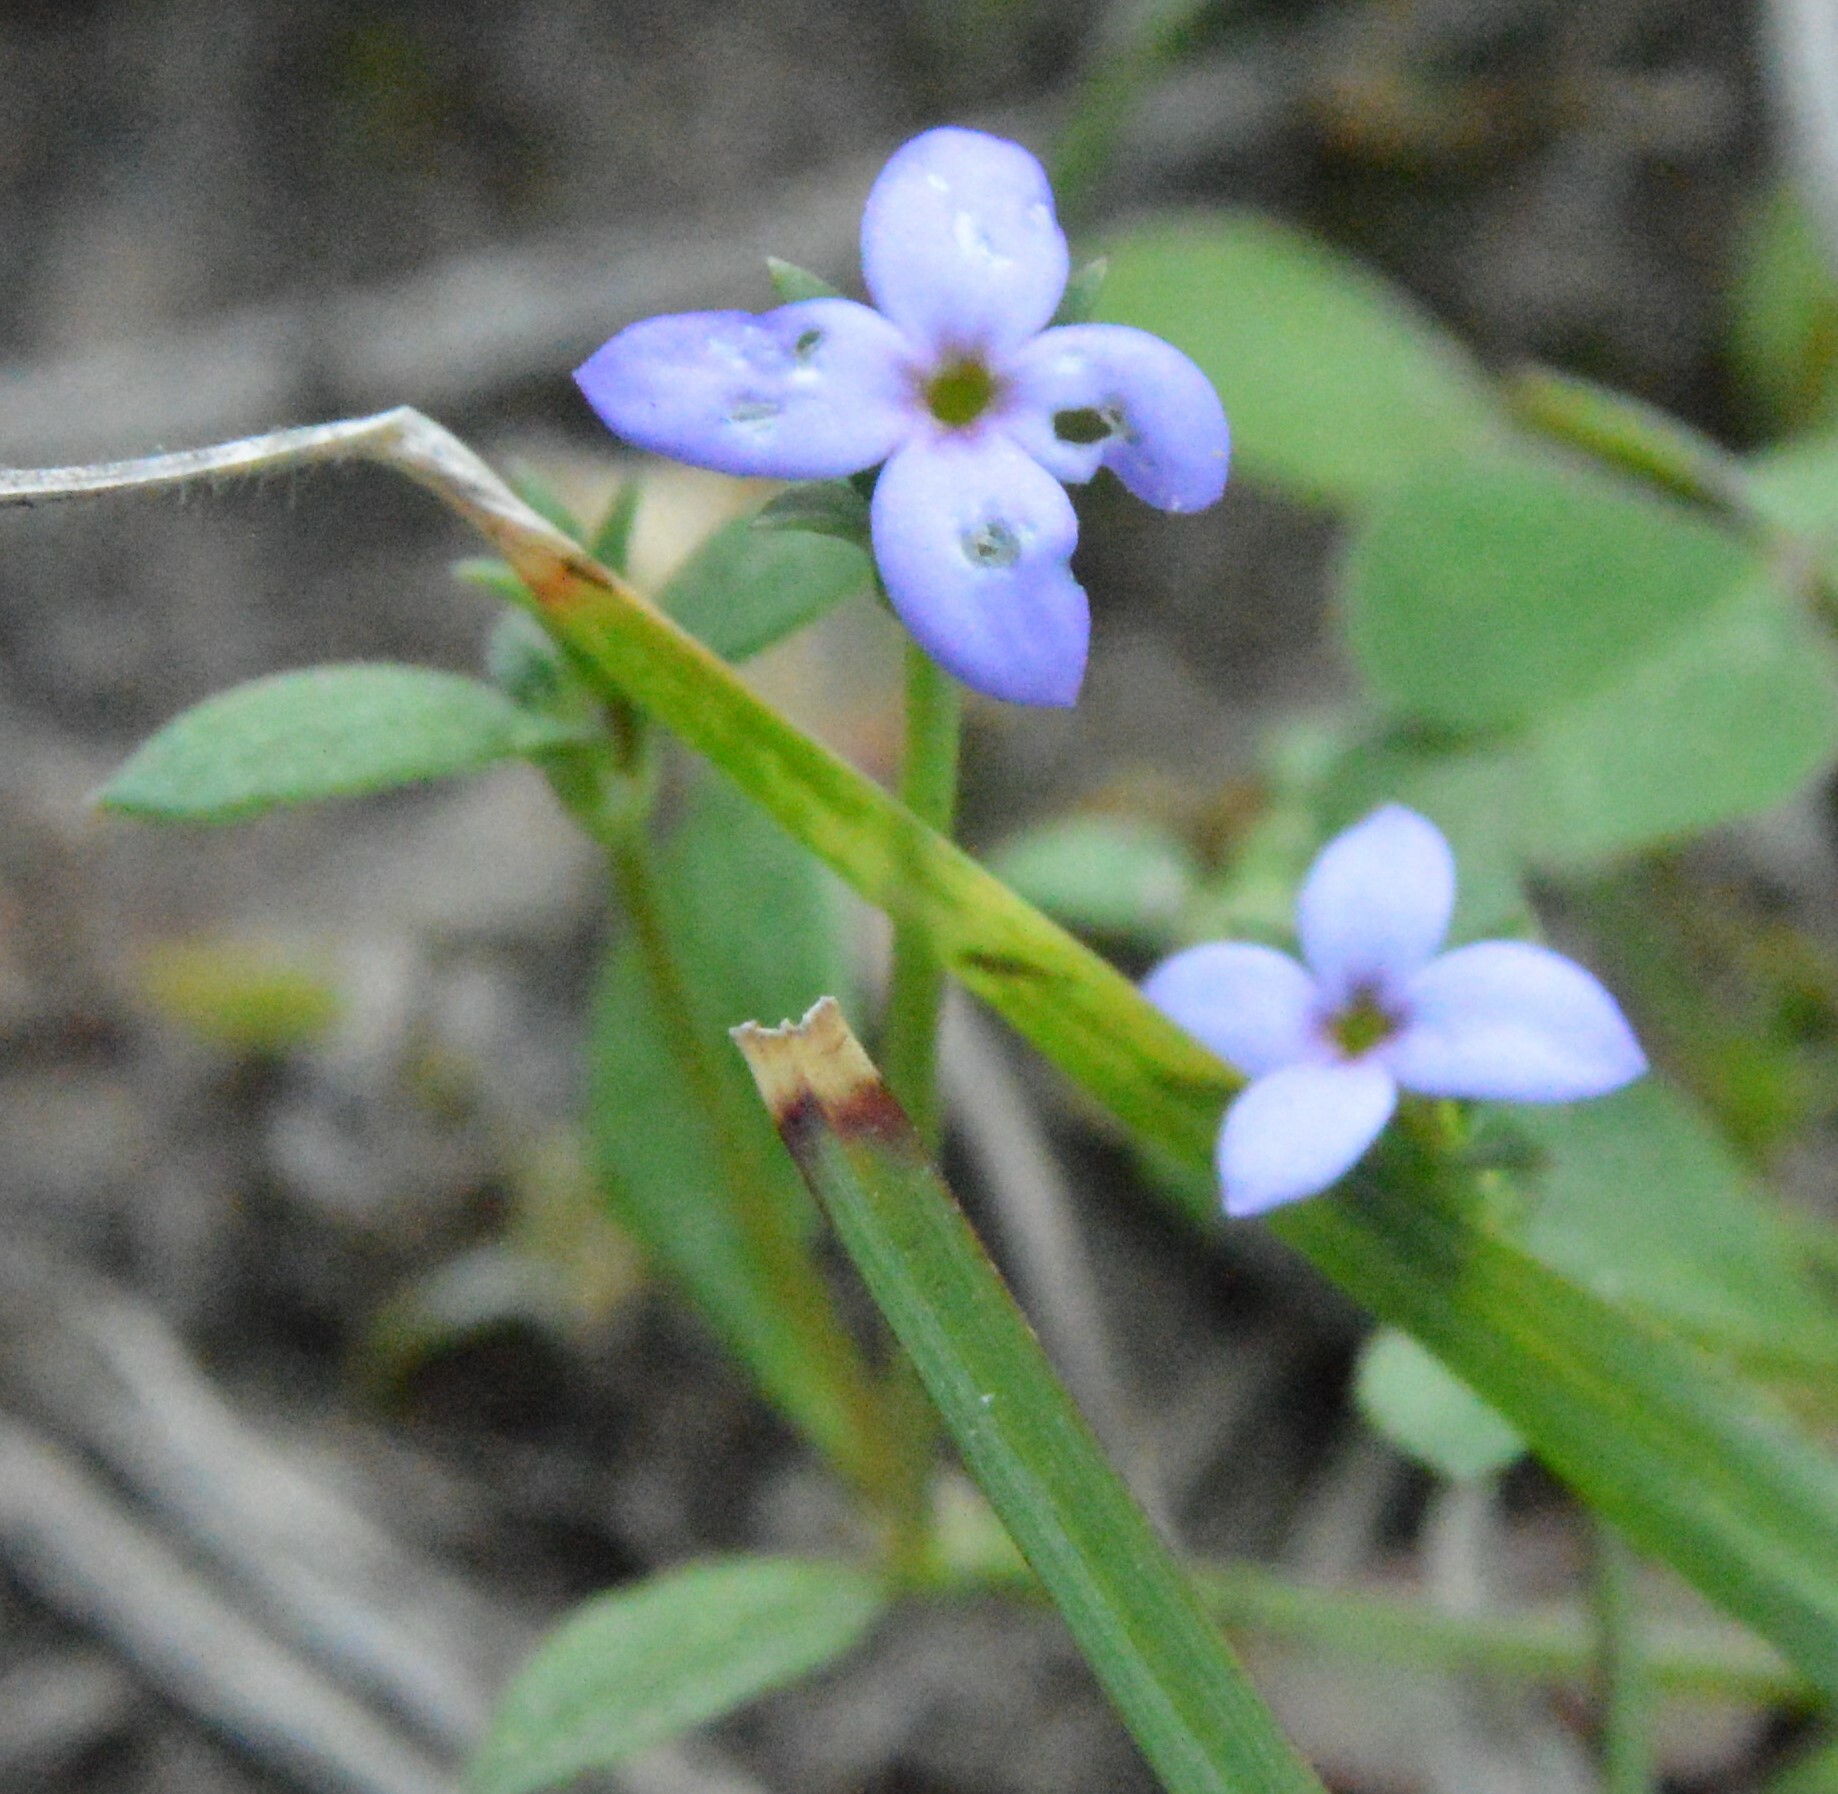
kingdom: Plantae
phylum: Tracheophyta
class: Magnoliopsida
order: Gentianales
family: Rubiaceae
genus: Houstonia
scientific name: Houstonia pusilla
